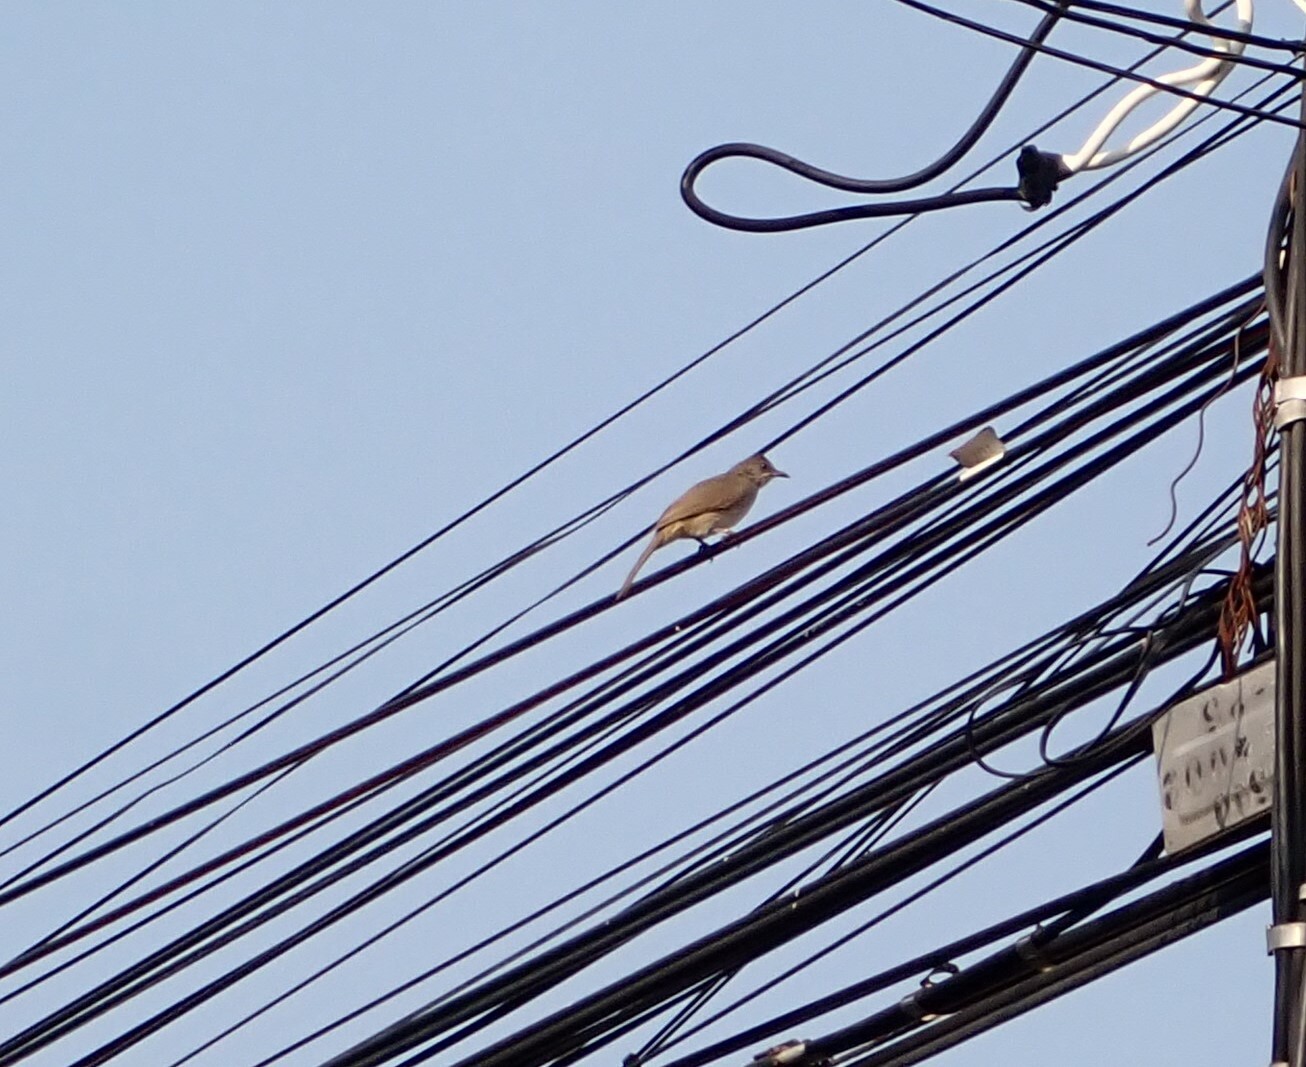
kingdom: Animalia
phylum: Chordata
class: Aves
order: Passeriformes
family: Pycnonotidae
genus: Pycnonotus
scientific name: Pycnonotus blanfordi
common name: Streak-eared bulbul
